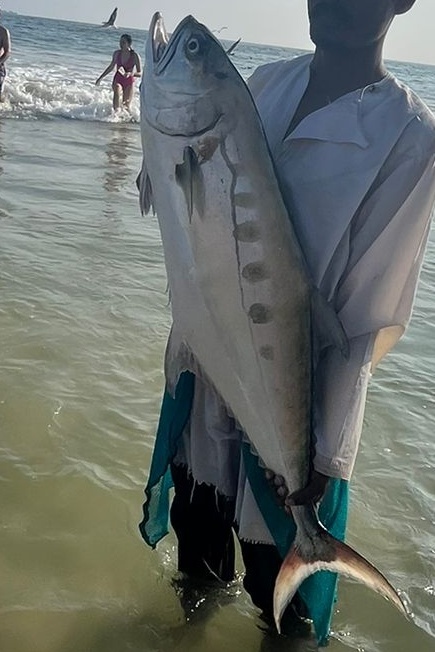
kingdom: Animalia
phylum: Chordata
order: Perciformes
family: Carangidae
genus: Scomberoides
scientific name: Scomberoides commersonnianus
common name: Talang queenfish
